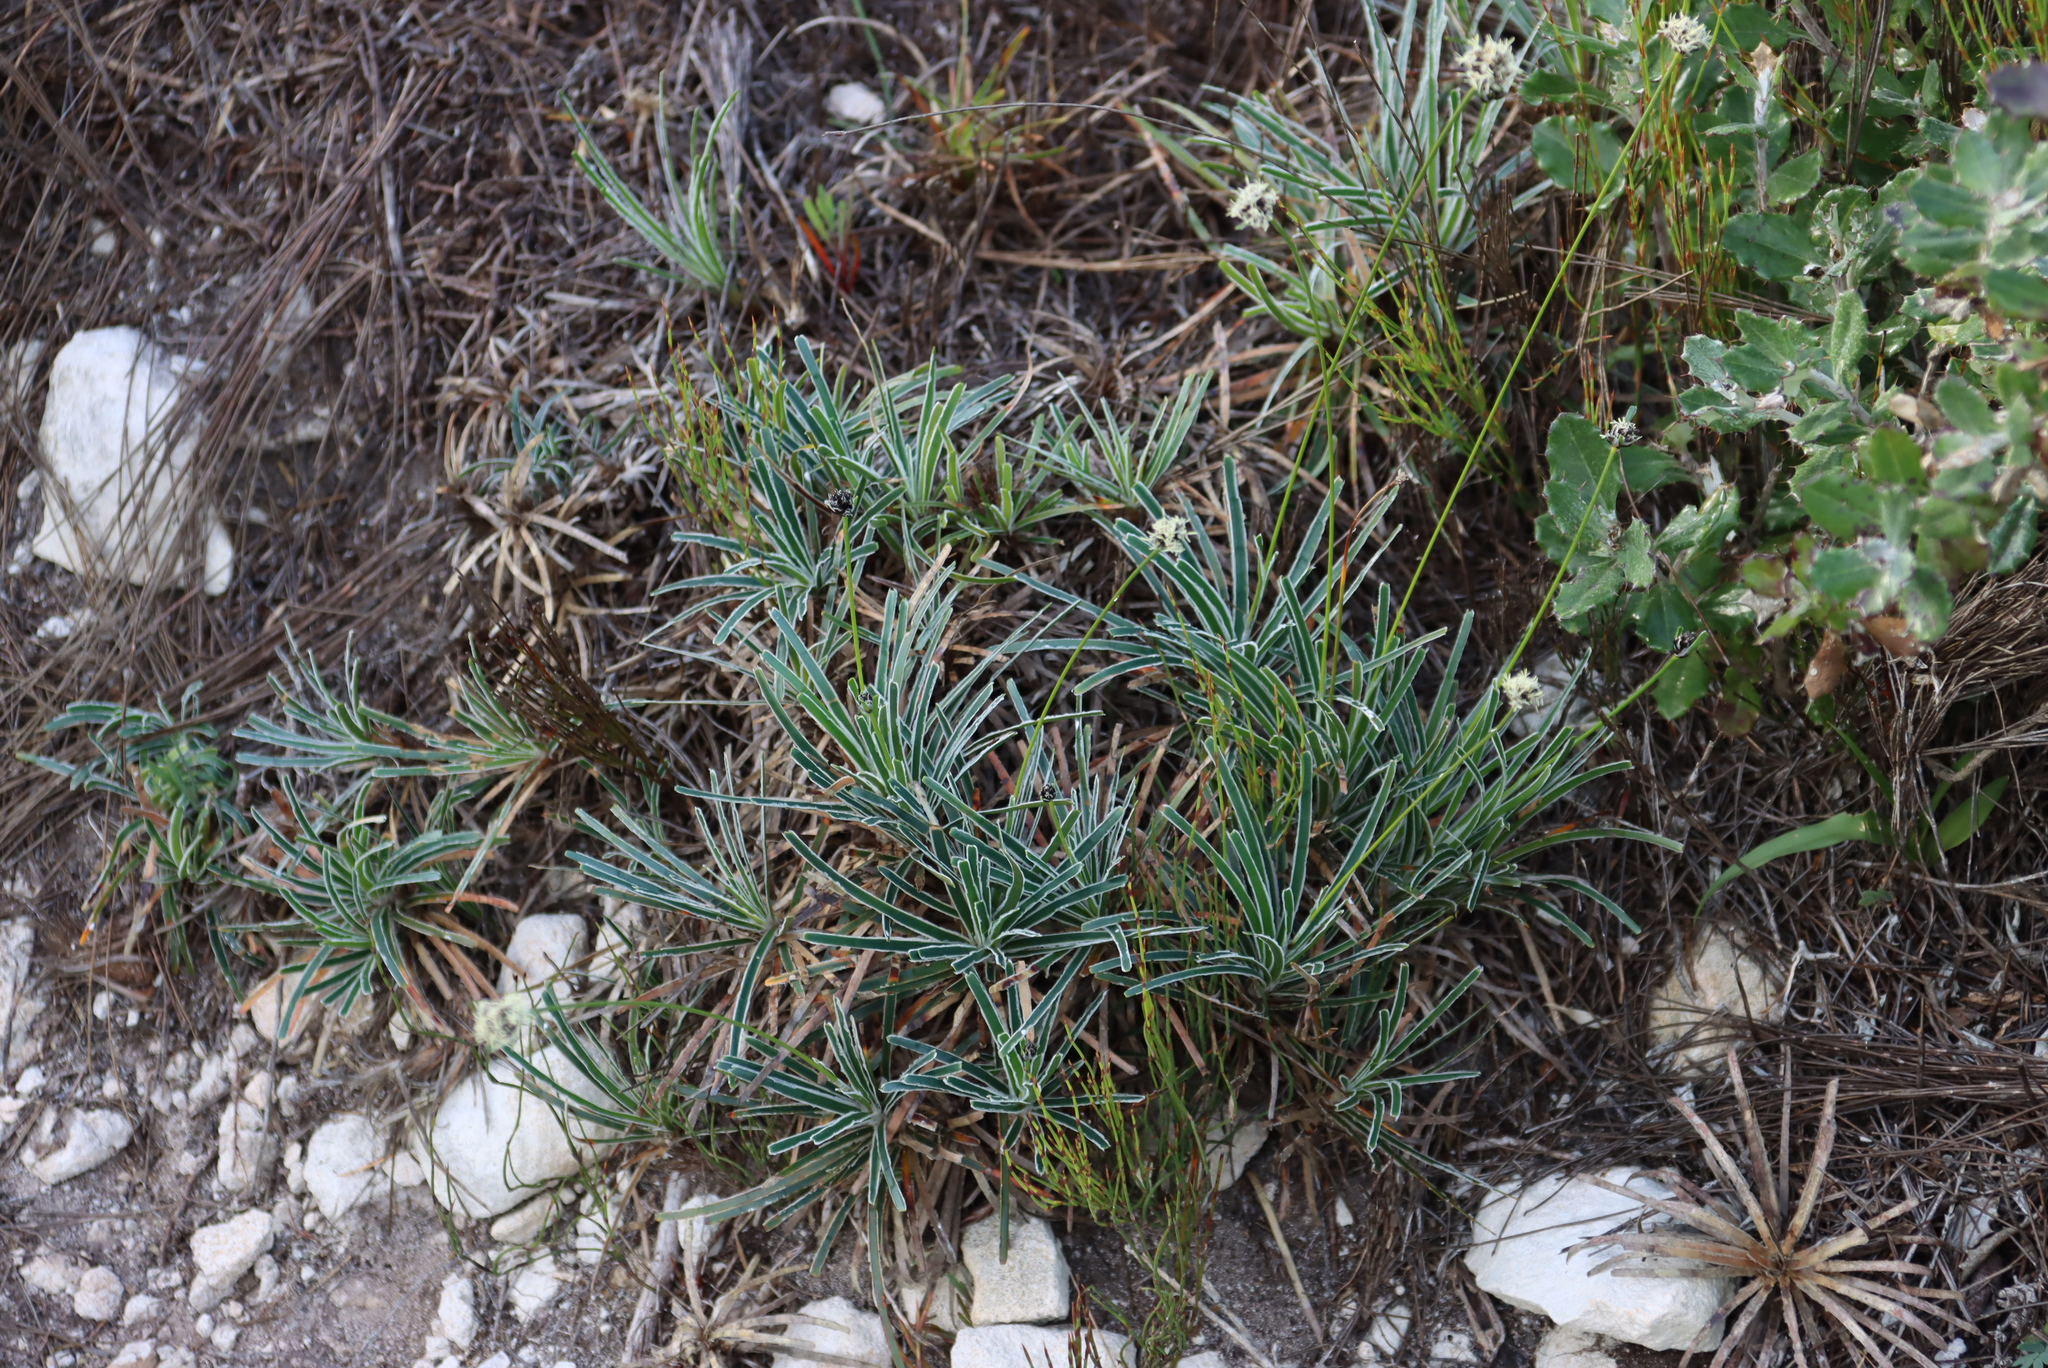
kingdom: Plantae
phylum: Tracheophyta
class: Liliopsida
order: Poales
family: Cyperaceae
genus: Ficinia
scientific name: Ficinia truncata
